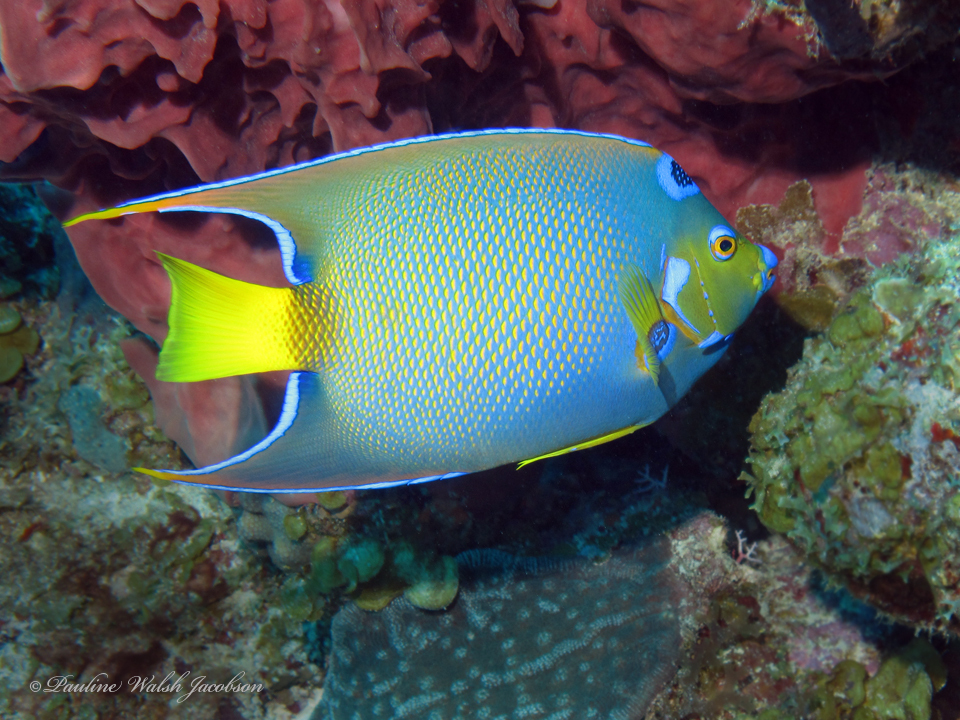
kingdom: Animalia
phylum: Chordata
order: Perciformes
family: Pomacanthidae
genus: Holacanthus
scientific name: Holacanthus ciliaris
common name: Queen angelfish
